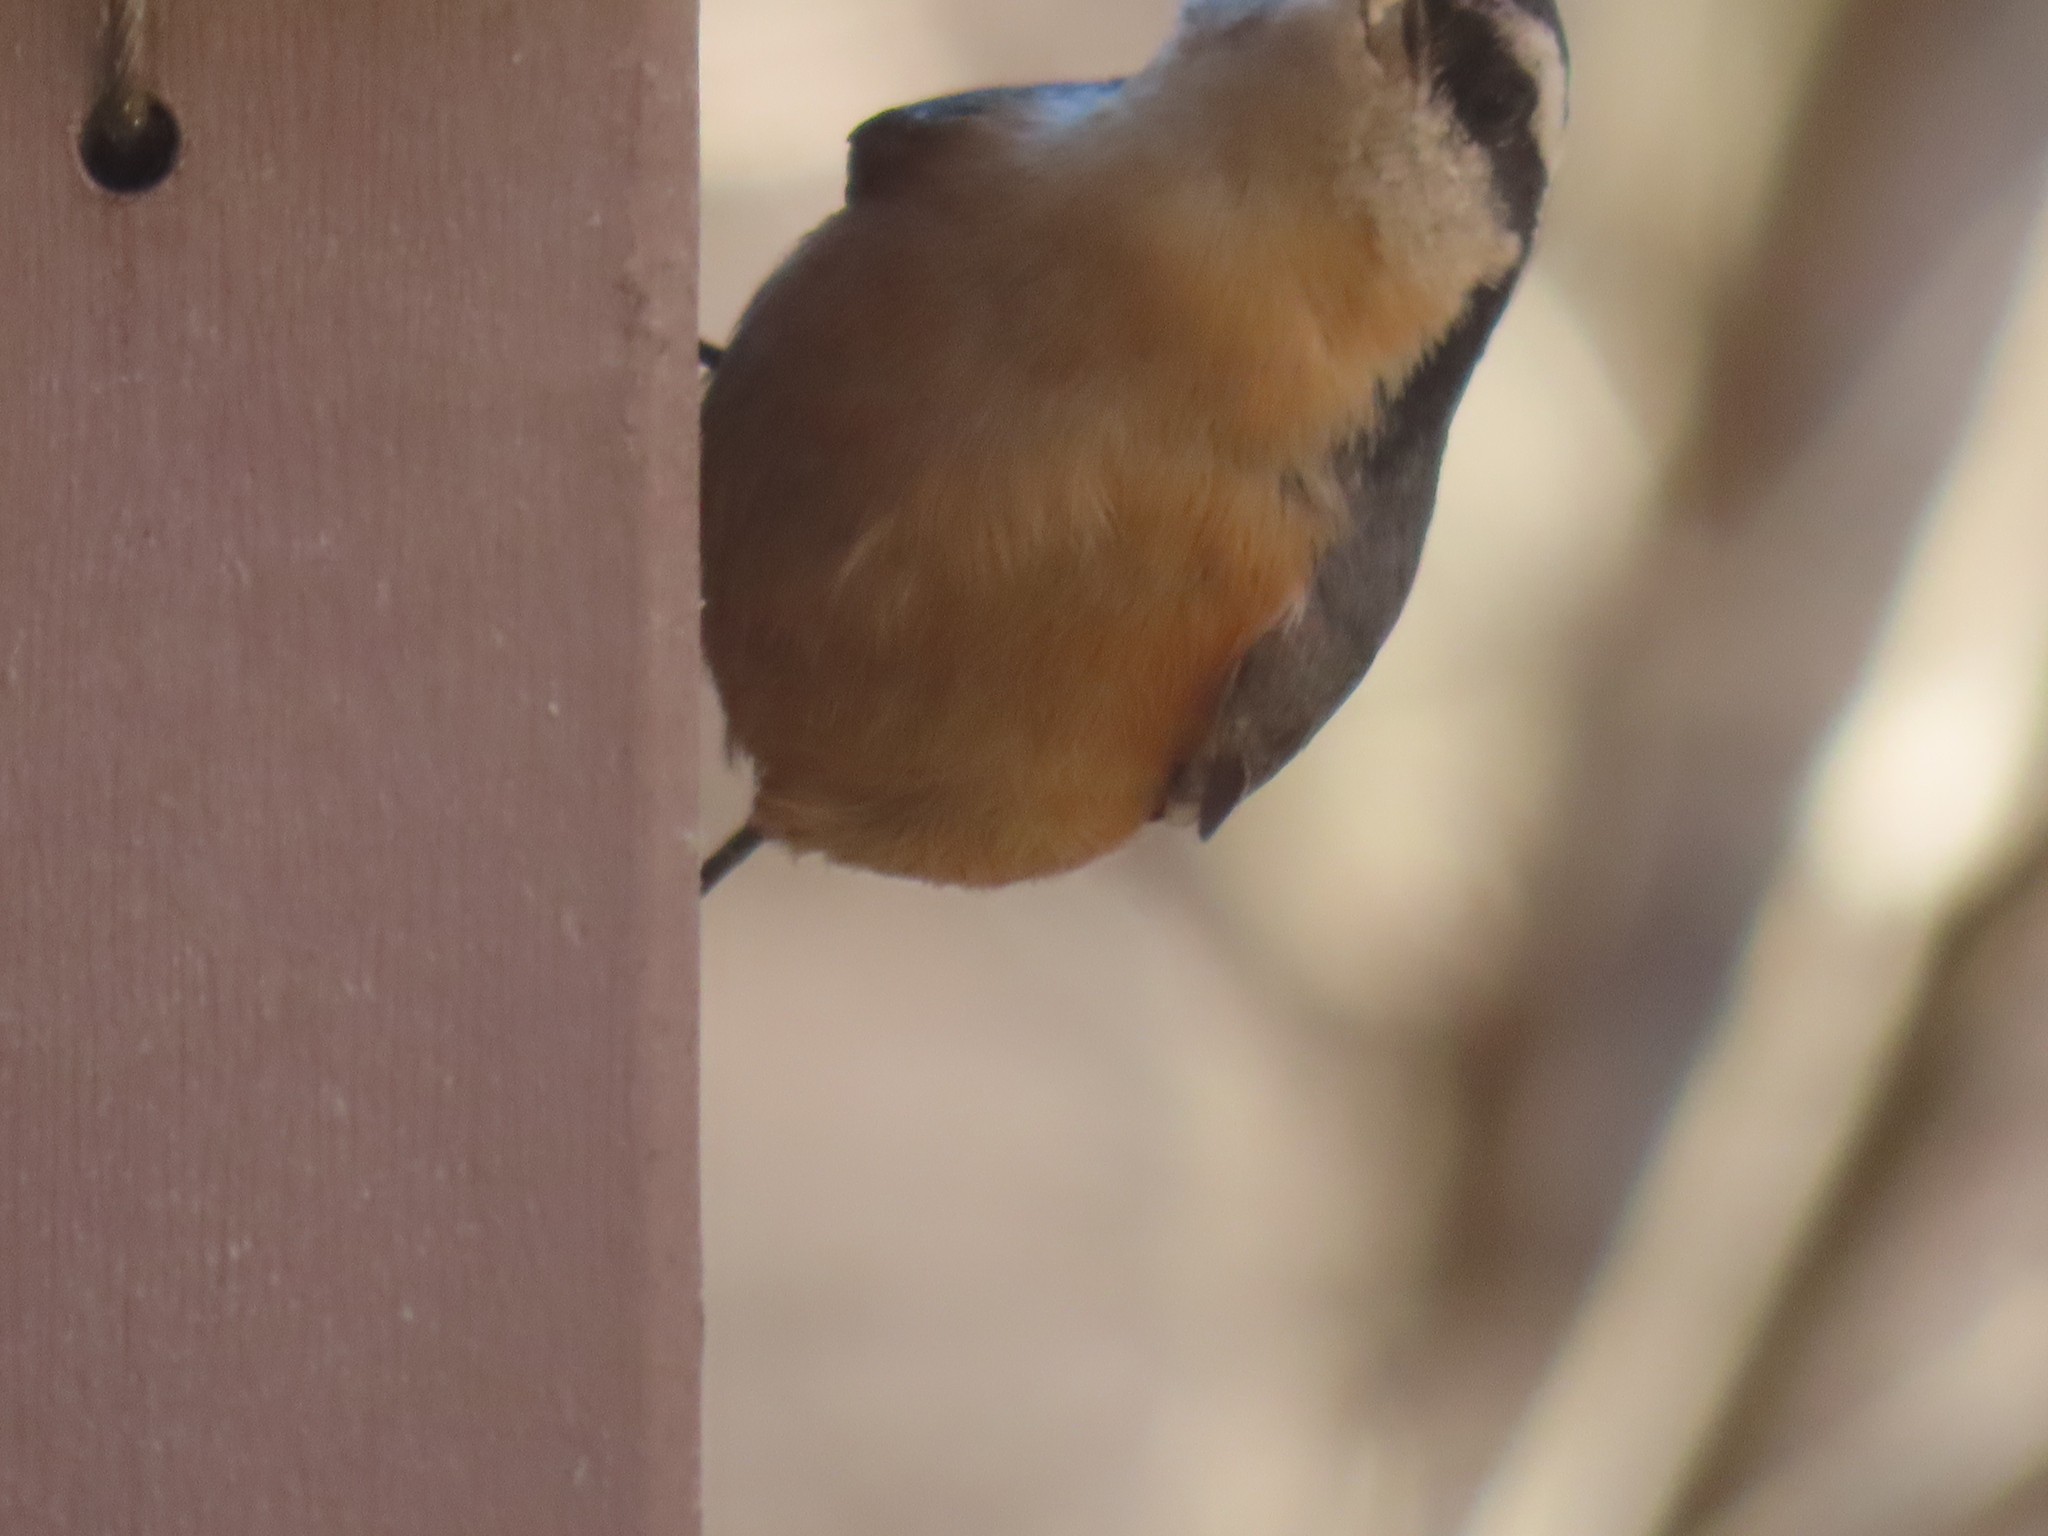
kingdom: Animalia
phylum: Chordata
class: Aves
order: Passeriformes
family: Sittidae
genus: Sitta
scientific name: Sitta canadensis
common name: Red-breasted nuthatch
